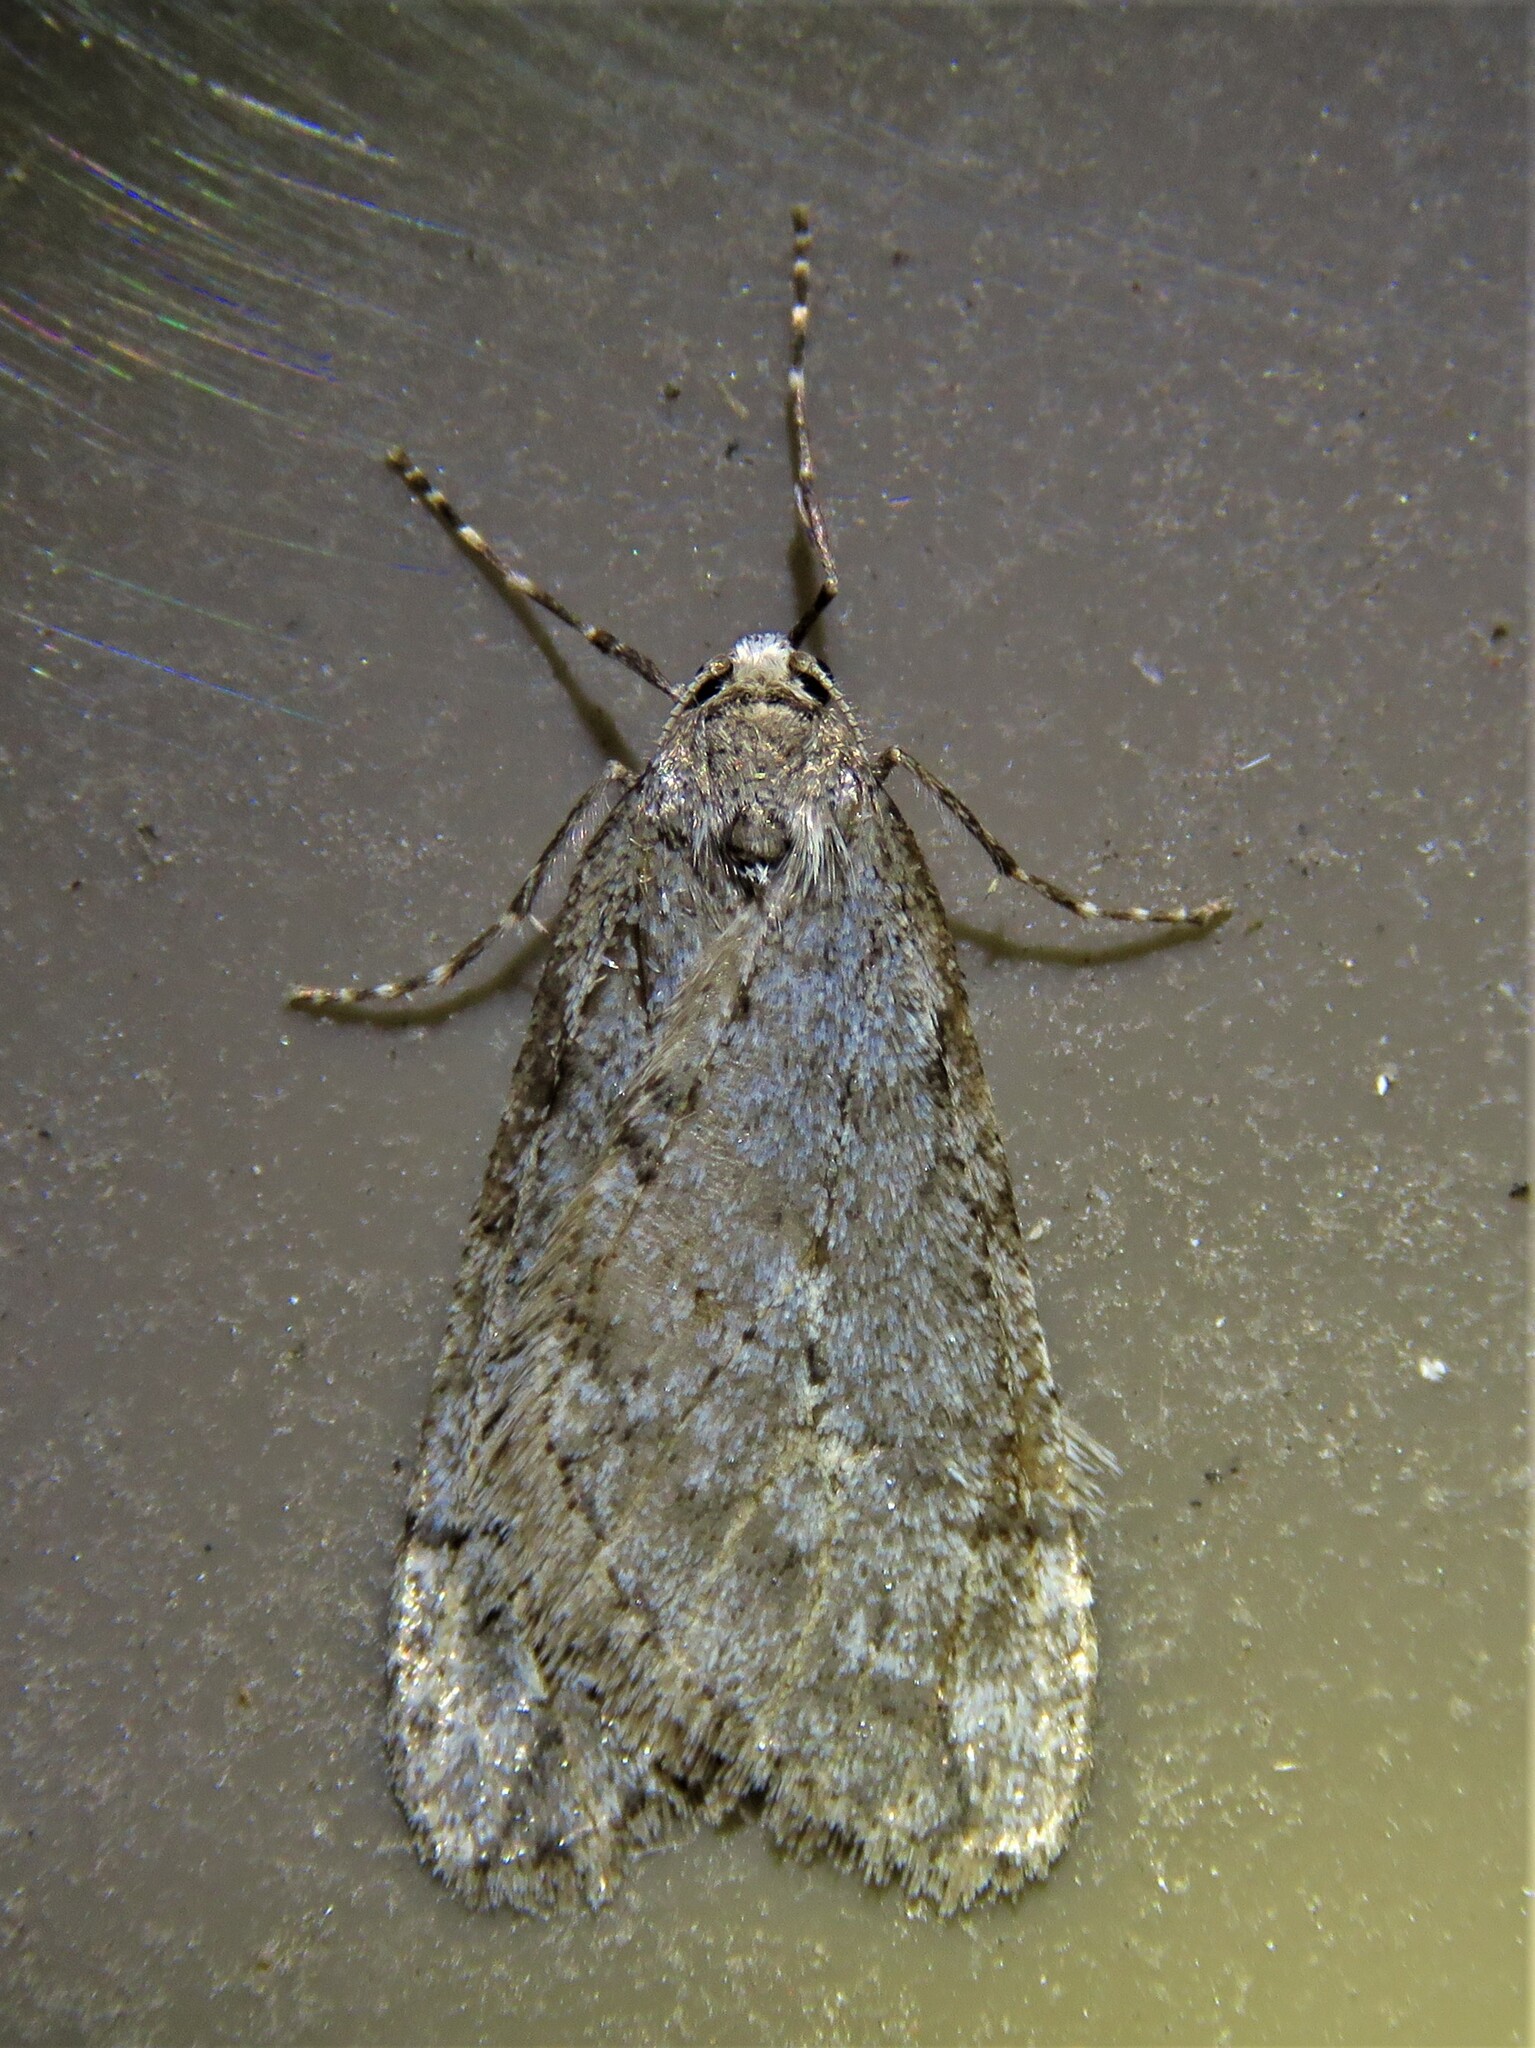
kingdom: Animalia
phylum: Arthropoda
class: Insecta
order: Lepidoptera
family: Geometridae
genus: Paleacrita
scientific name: Paleacrita vernata
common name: Spring cankerworm
